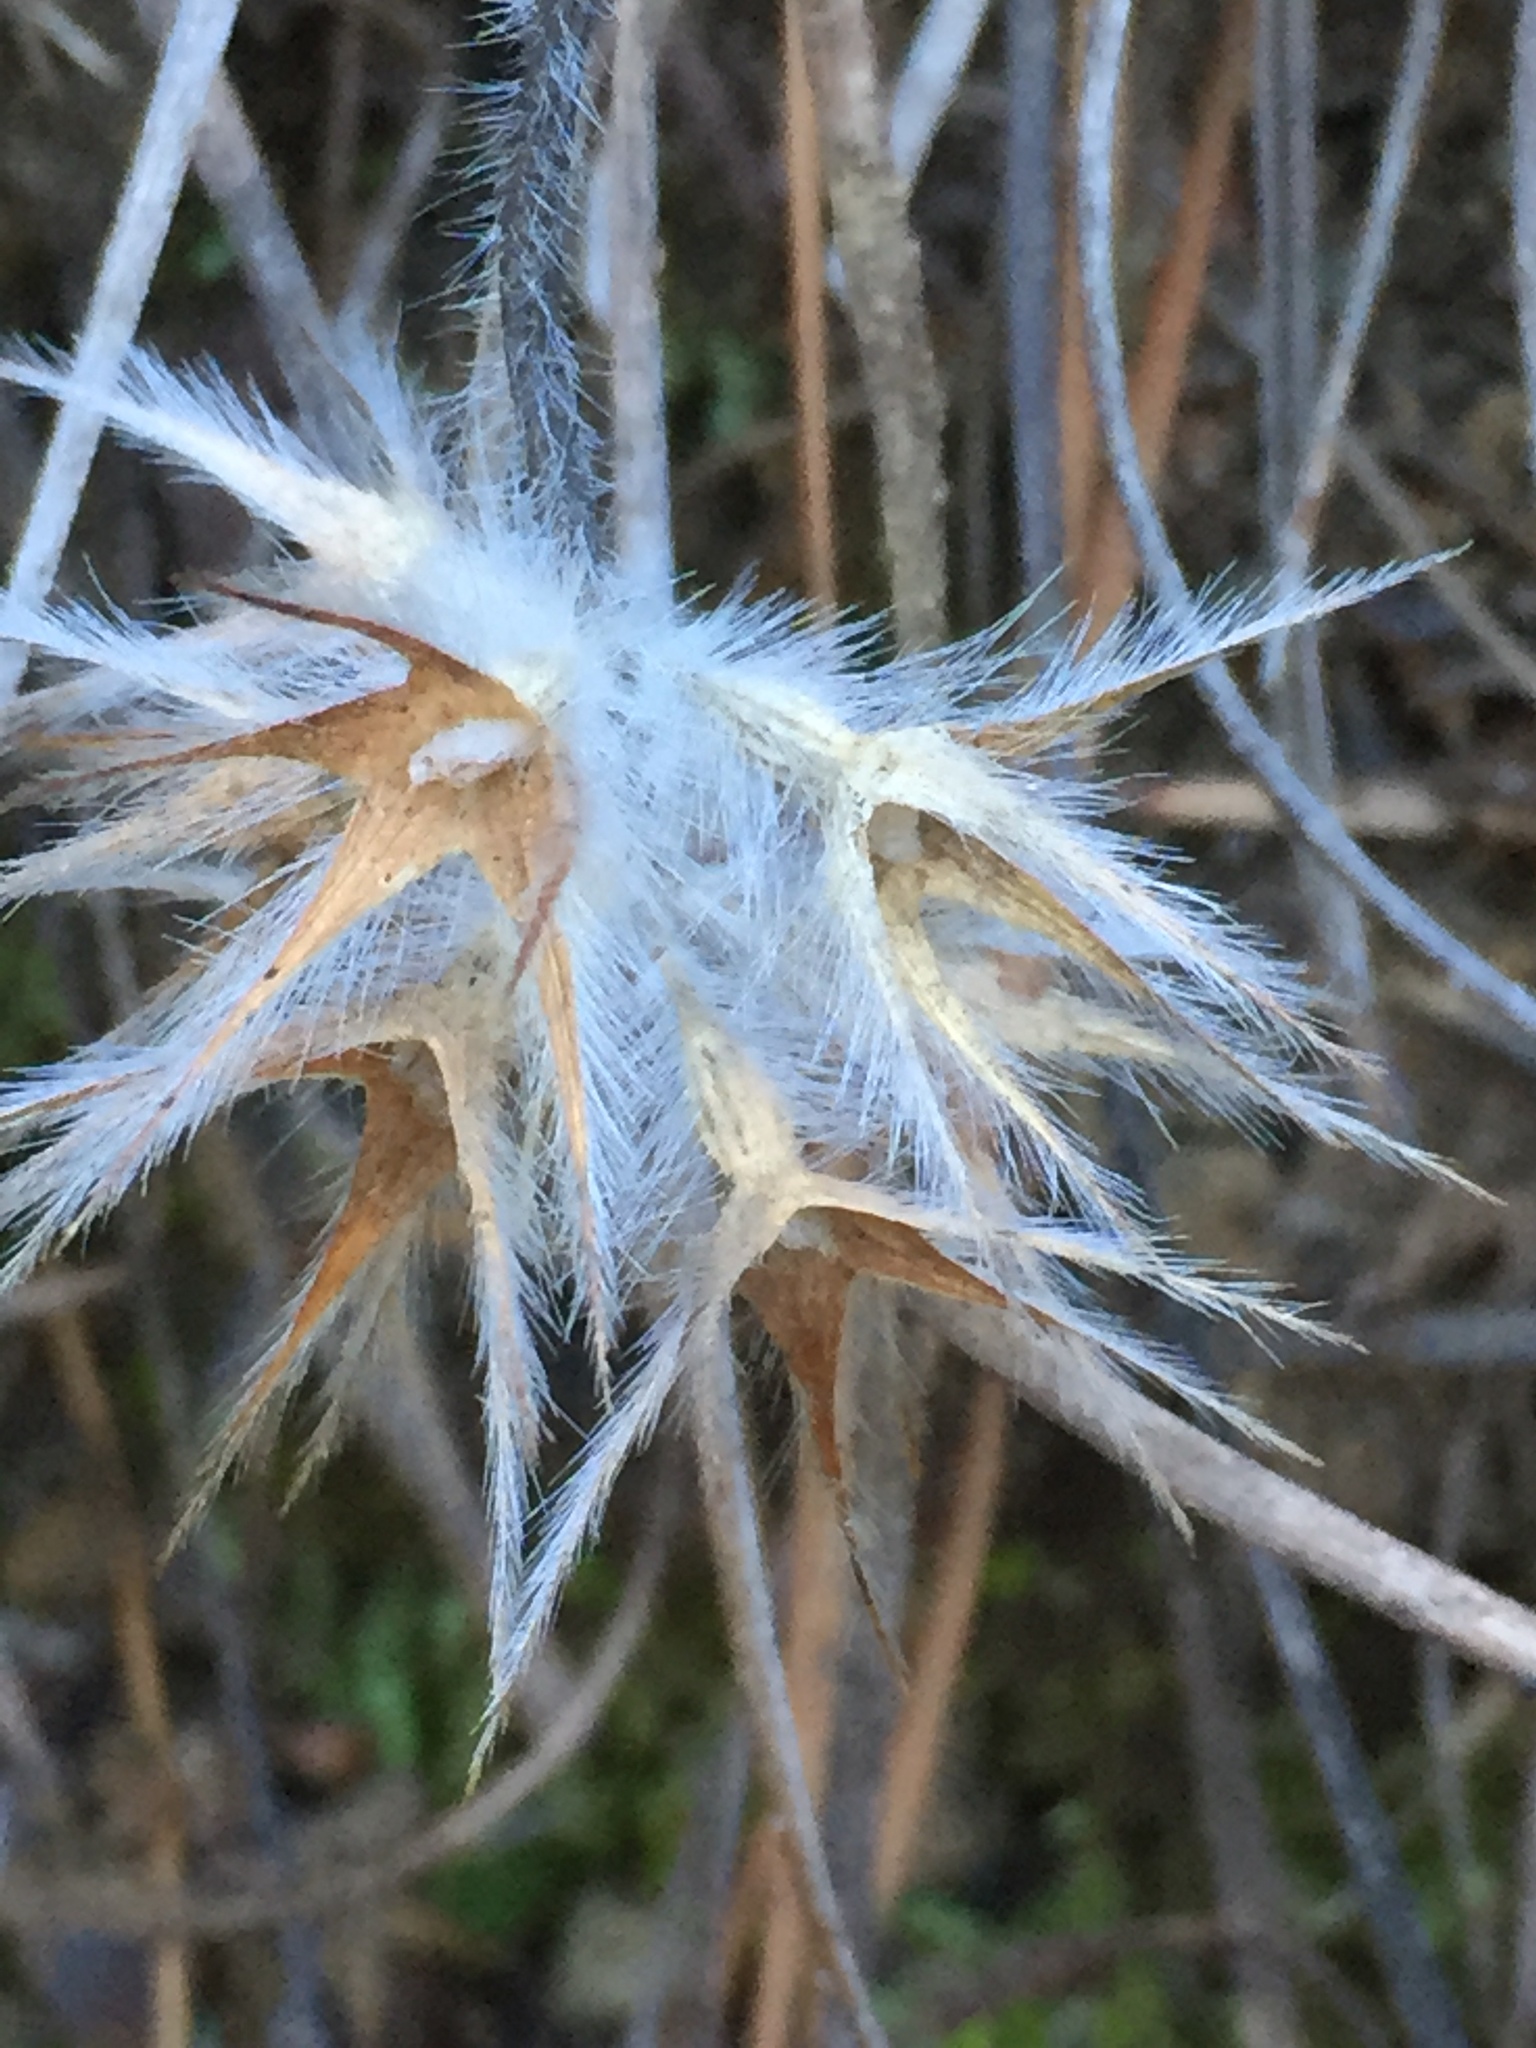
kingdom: Plantae
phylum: Tracheophyta
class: Magnoliopsida
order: Fabales
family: Fabaceae
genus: Trifolium
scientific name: Trifolium stellatum
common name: Starry clover
